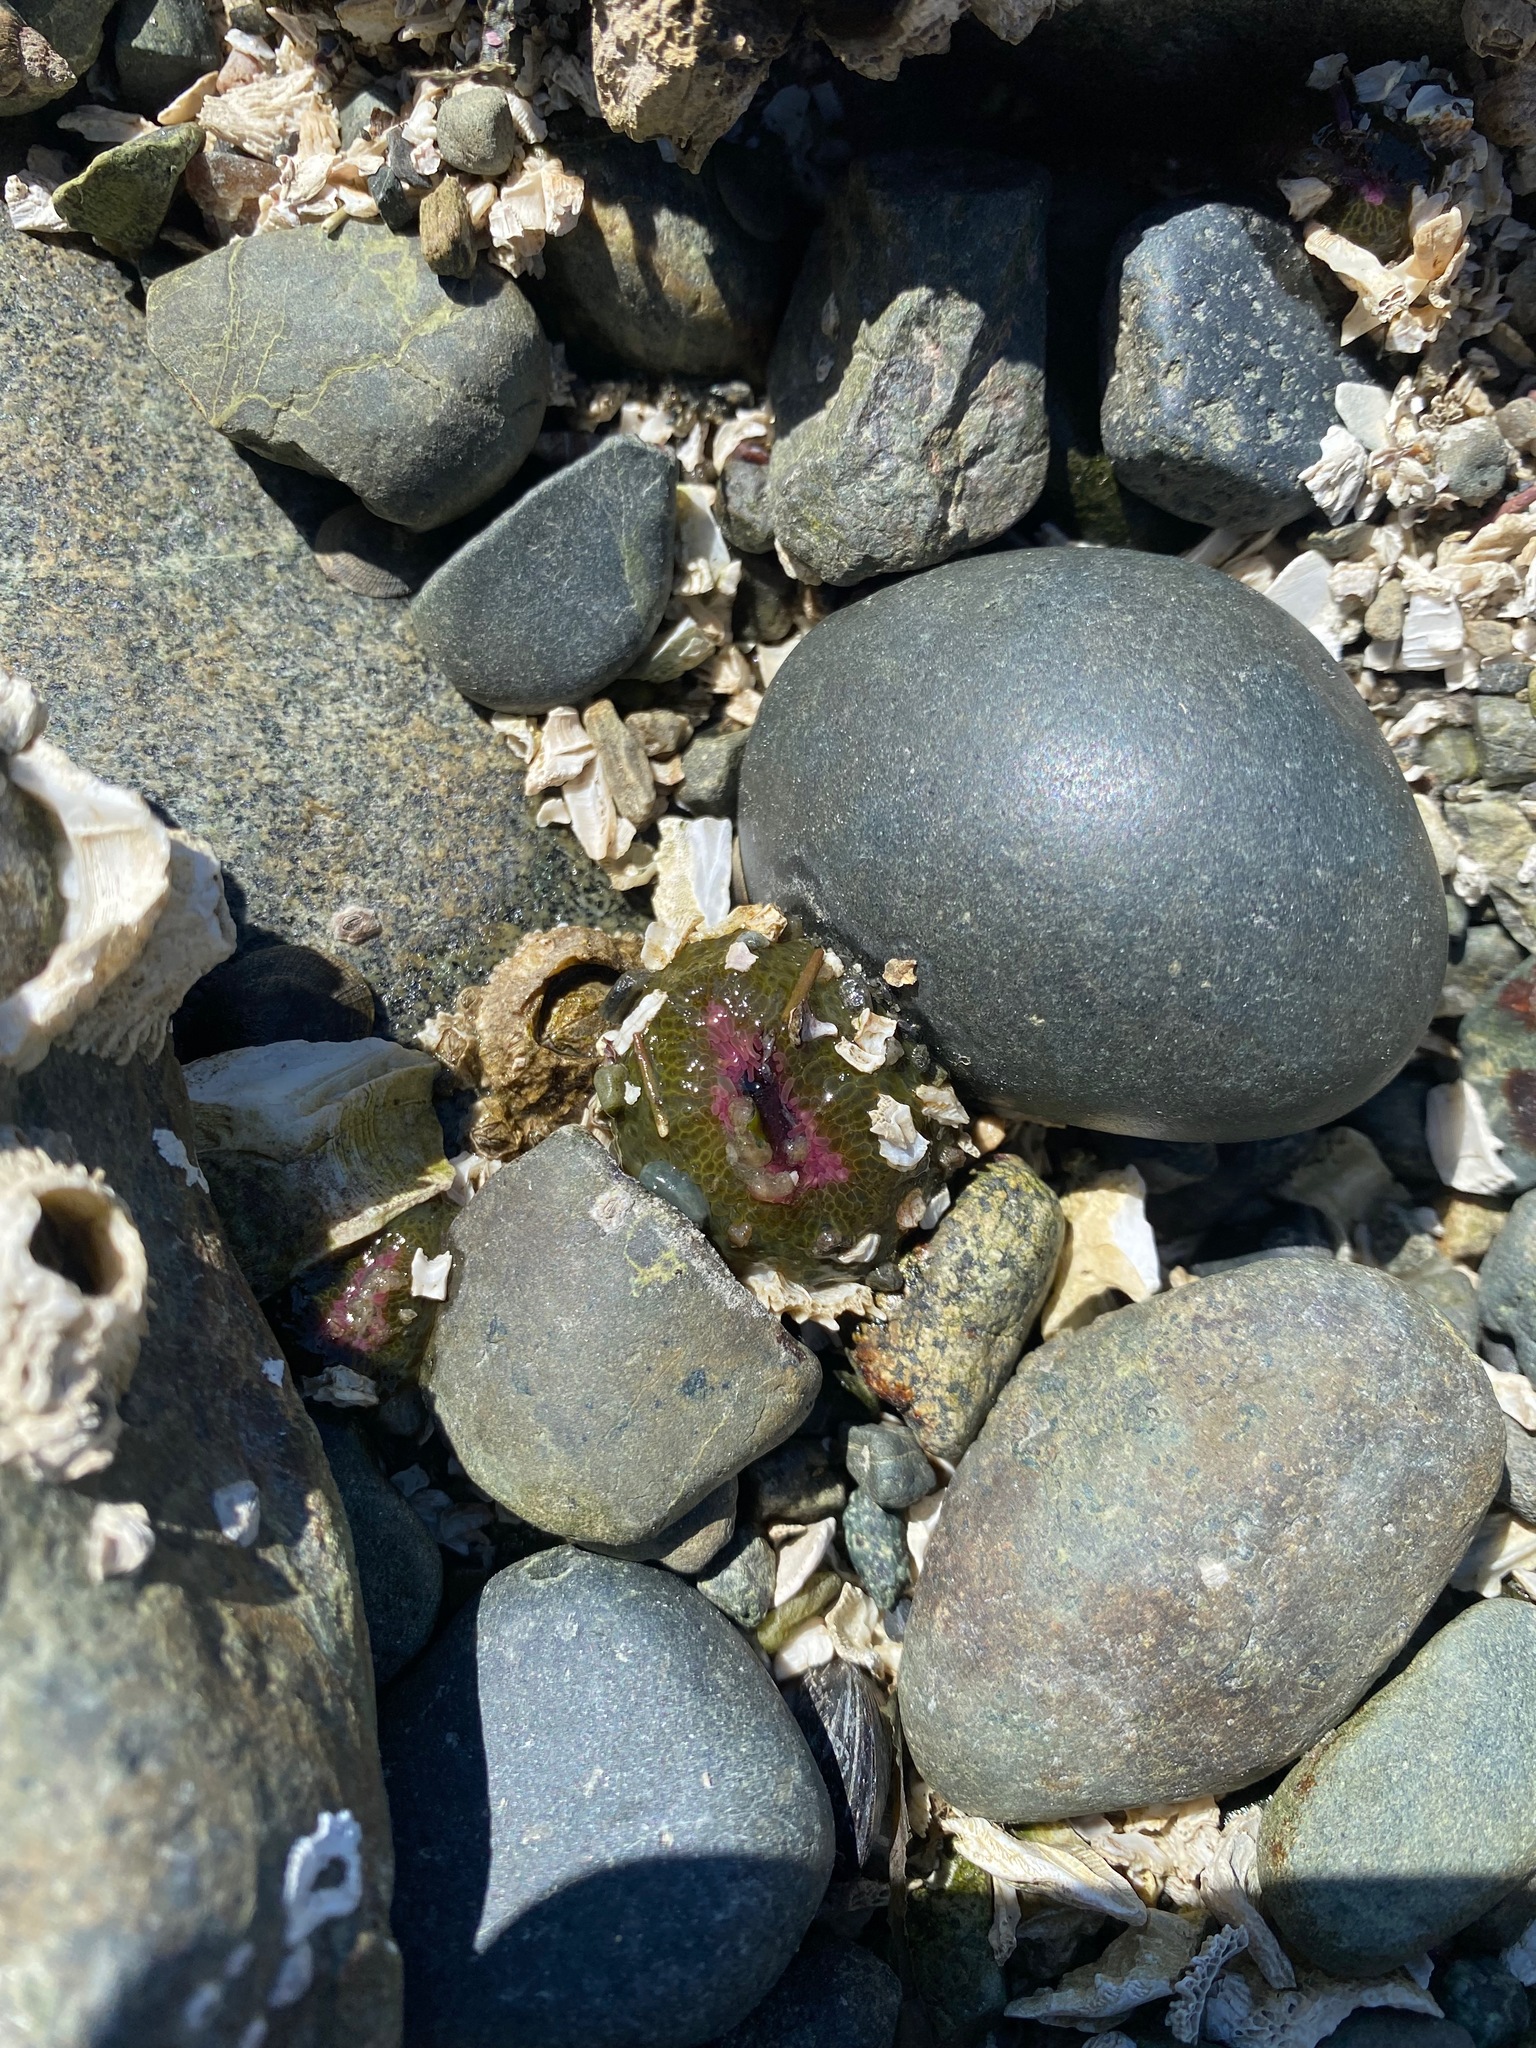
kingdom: Animalia
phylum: Cnidaria
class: Anthozoa
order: Actiniaria
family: Actiniidae
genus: Anthopleura
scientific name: Anthopleura elegantissima
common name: Clonal anemone
